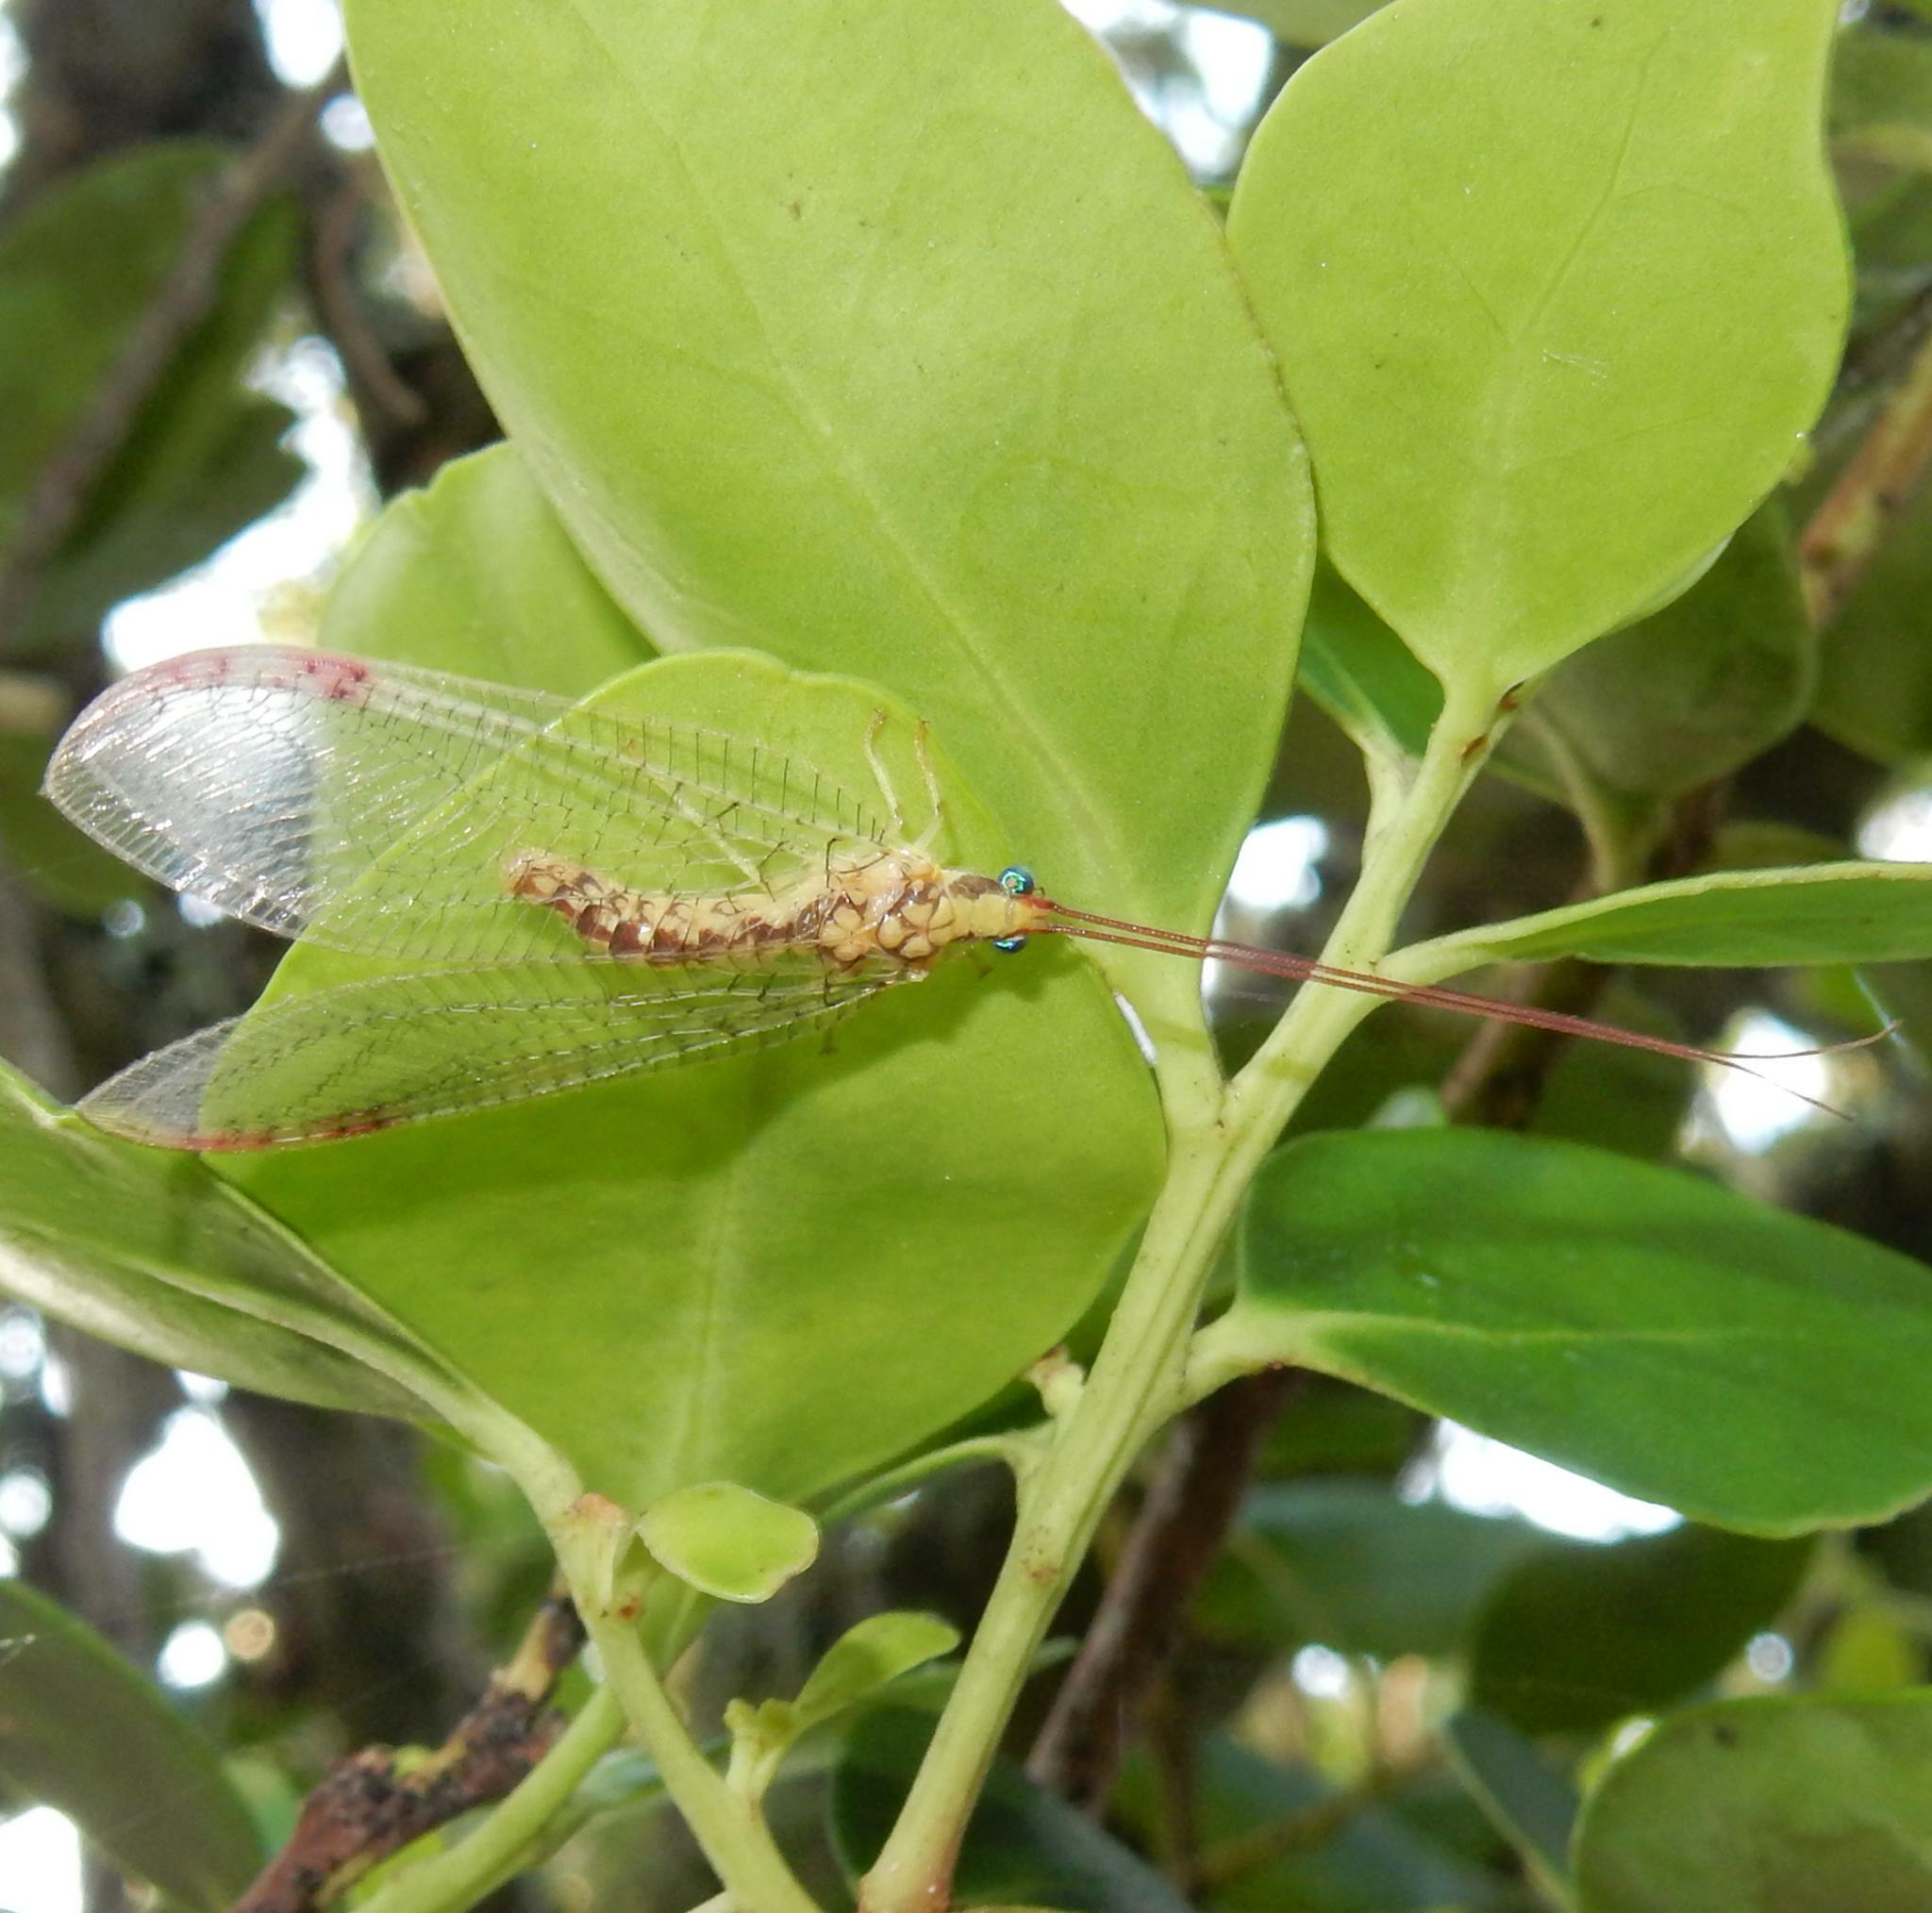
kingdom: Animalia
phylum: Arthropoda
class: Insecta
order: Neuroptera
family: Chrysopidae
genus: Italochrysa
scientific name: Italochrysa nevrodes
